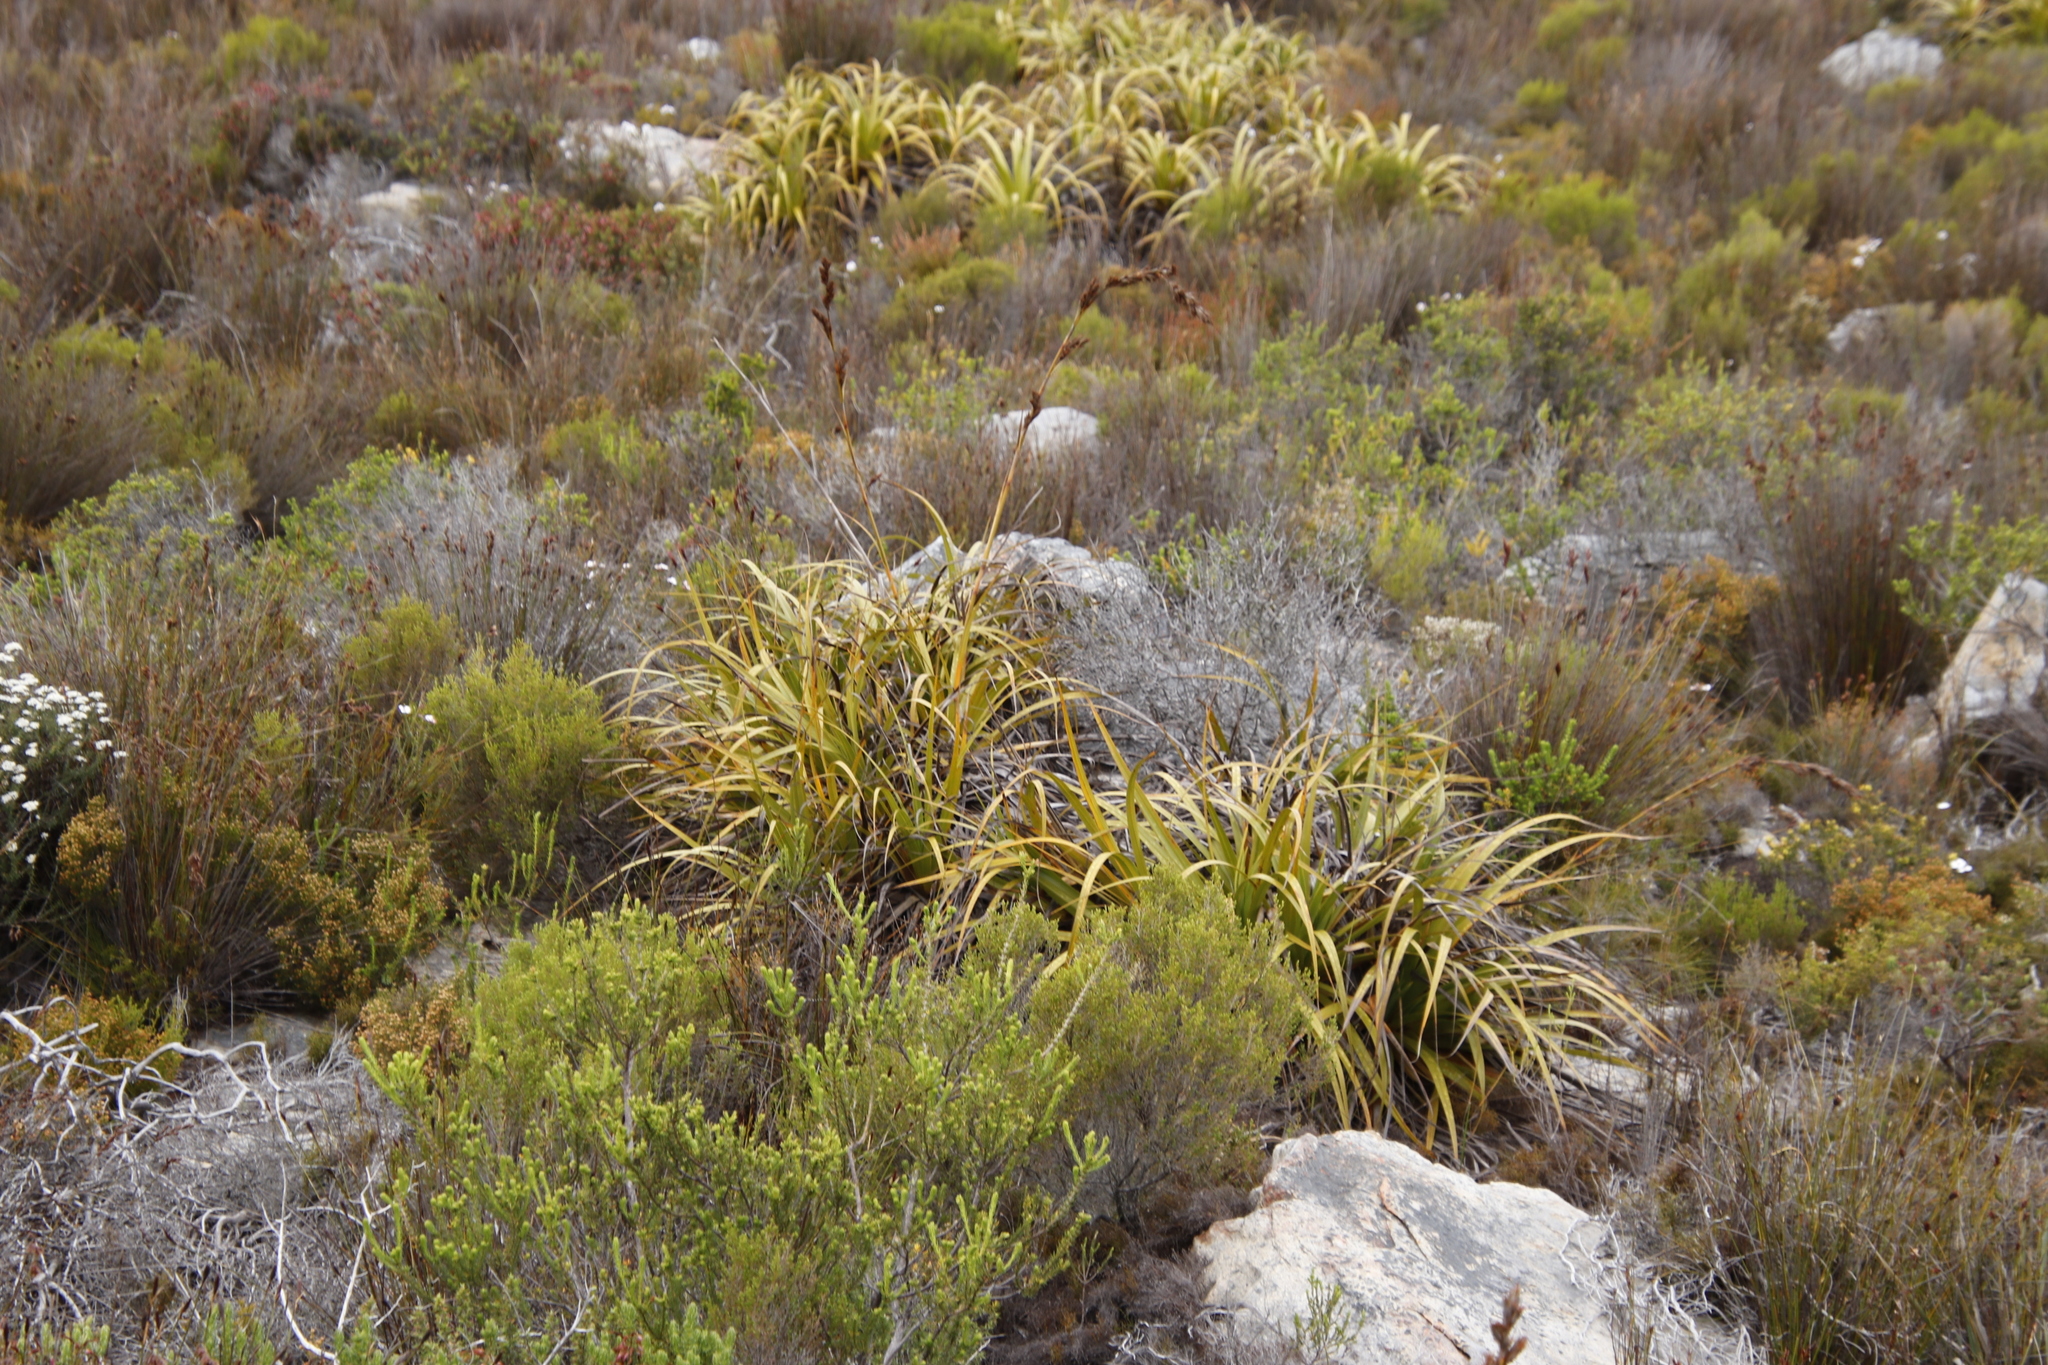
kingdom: Plantae
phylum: Tracheophyta
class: Liliopsida
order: Poales
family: Cyperaceae
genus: Tetraria
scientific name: Tetraria thermalis
